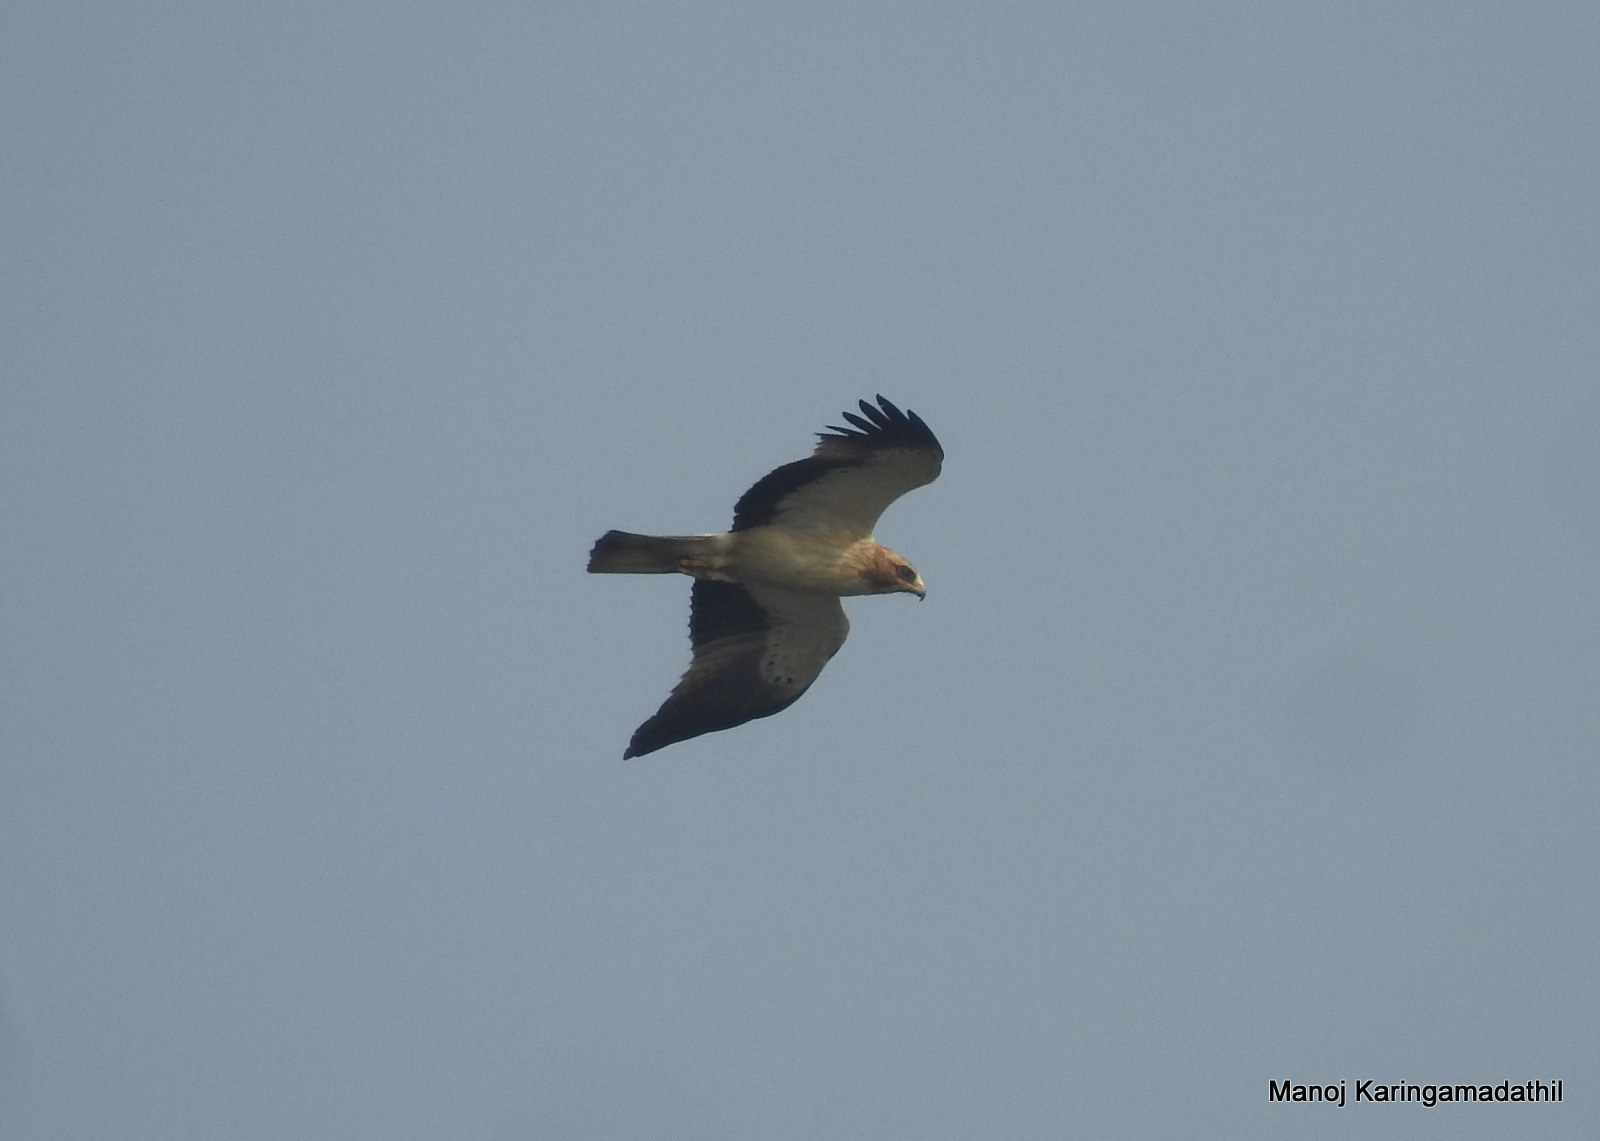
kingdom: Animalia
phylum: Chordata
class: Aves
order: Accipitriformes
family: Accipitridae
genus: Hieraaetus
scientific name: Hieraaetus pennatus
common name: Booted eagle
